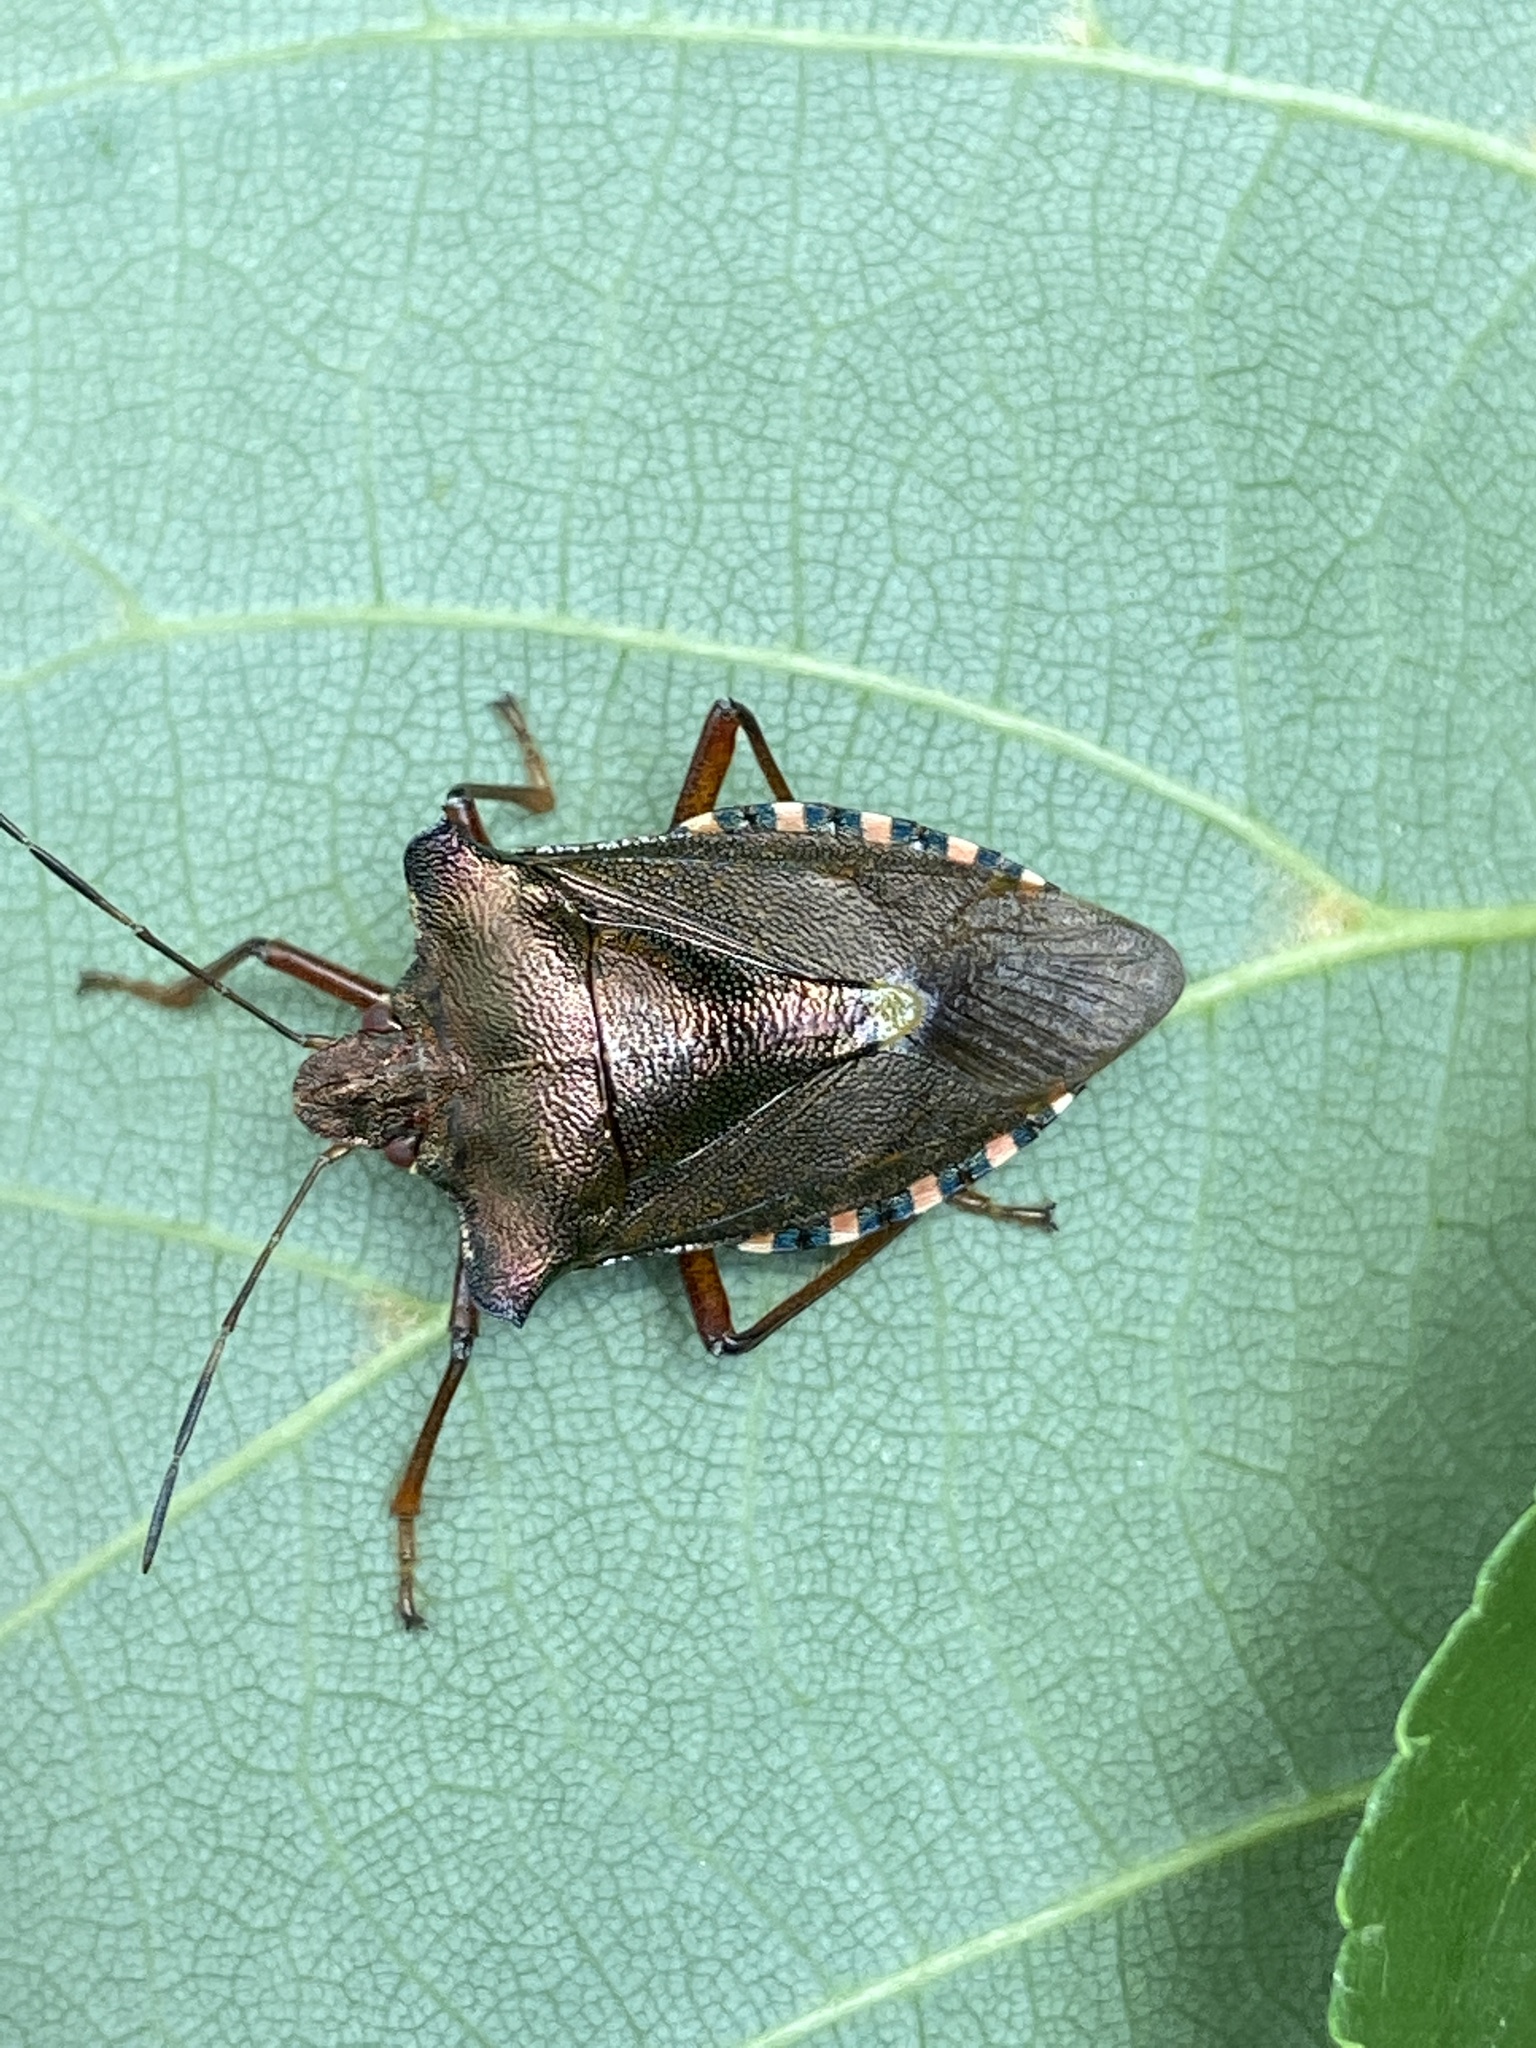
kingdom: Animalia
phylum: Arthropoda
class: Insecta
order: Hemiptera
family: Pentatomidae
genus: Pentatoma
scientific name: Pentatoma rufipes
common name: Forest bug
